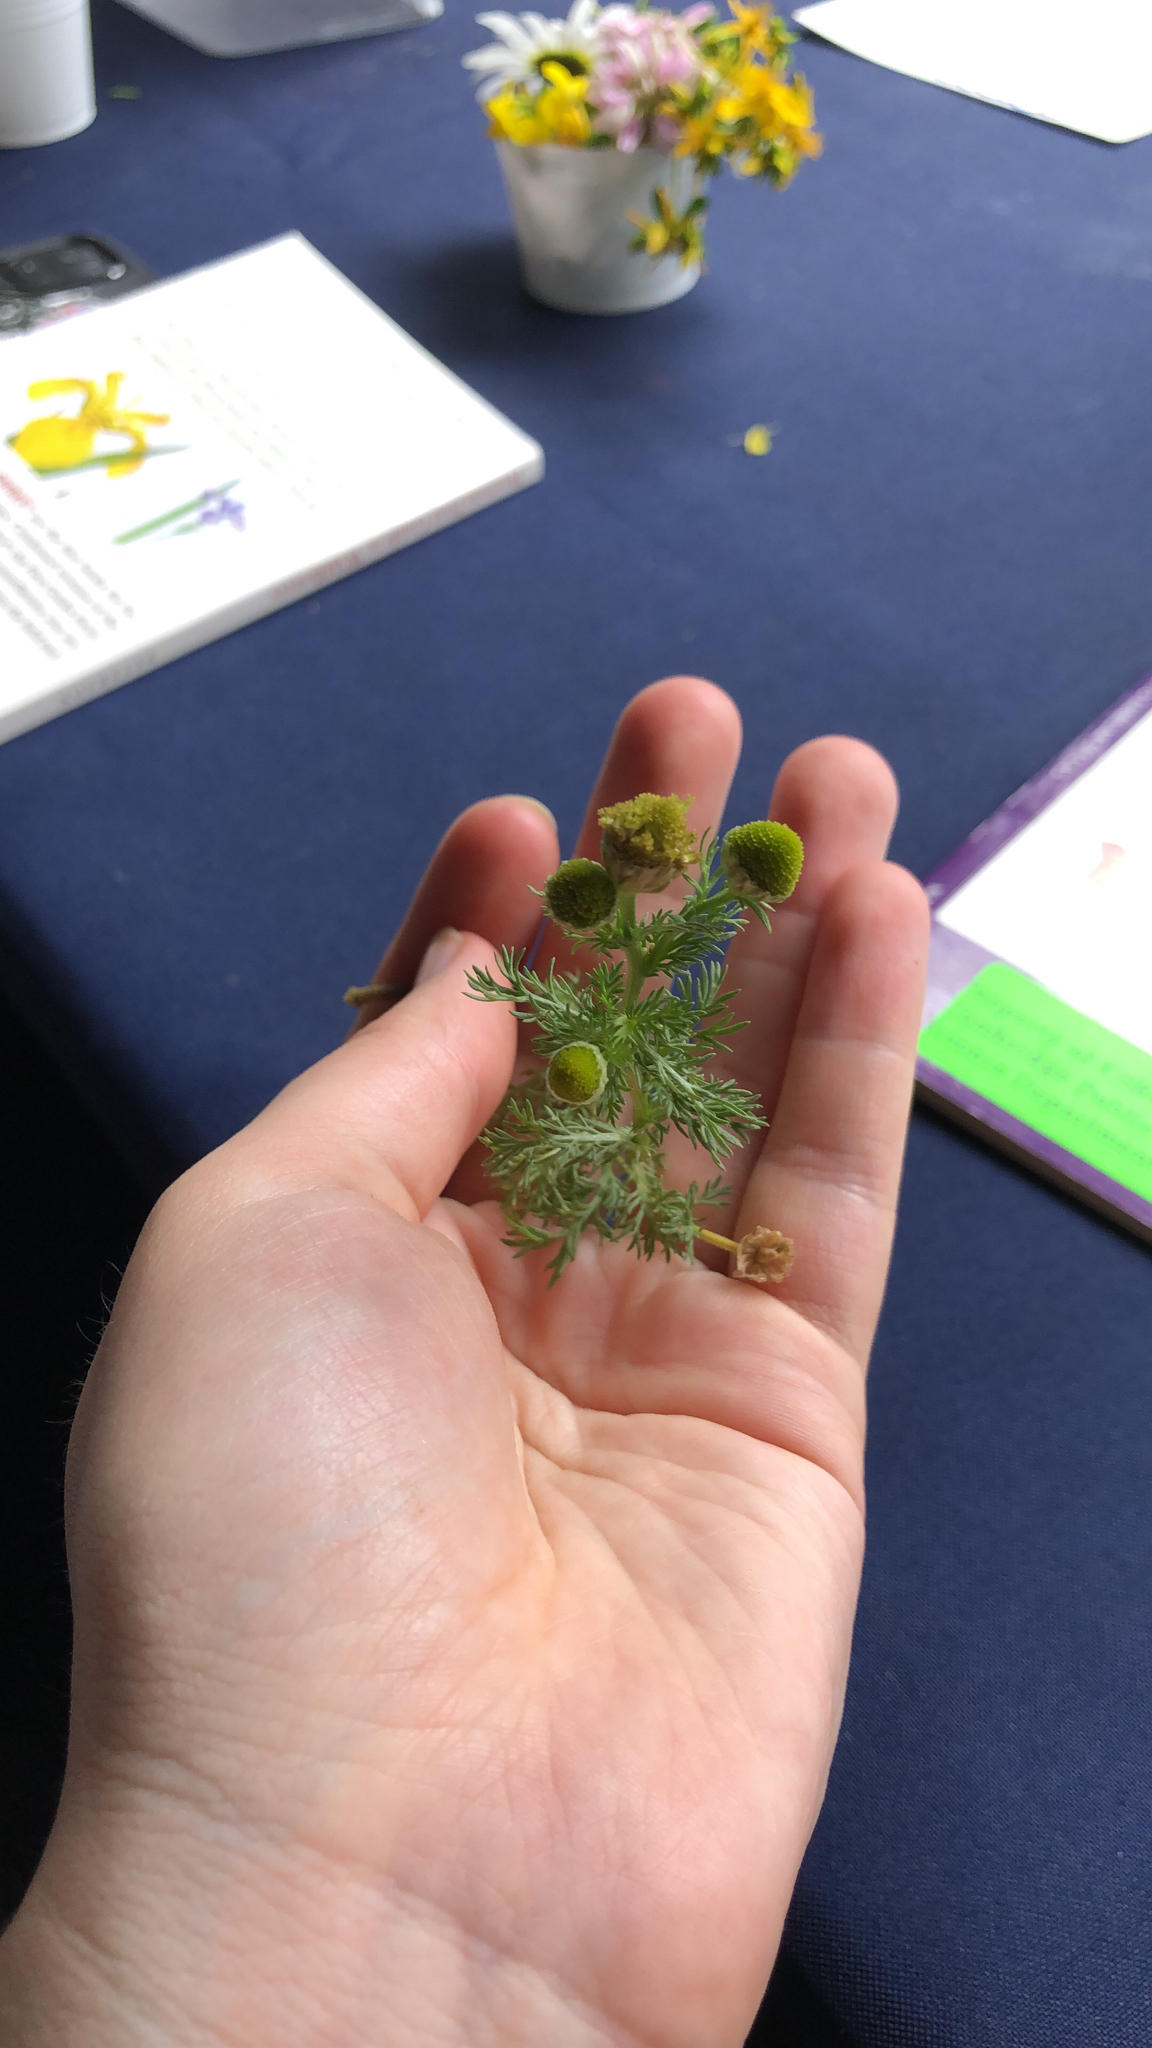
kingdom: Plantae
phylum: Tracheophyta
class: Magnoliopsida
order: Asterales
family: Asteraceae
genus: Matricaria
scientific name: Matricaria discoidea
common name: Disc mayweed
